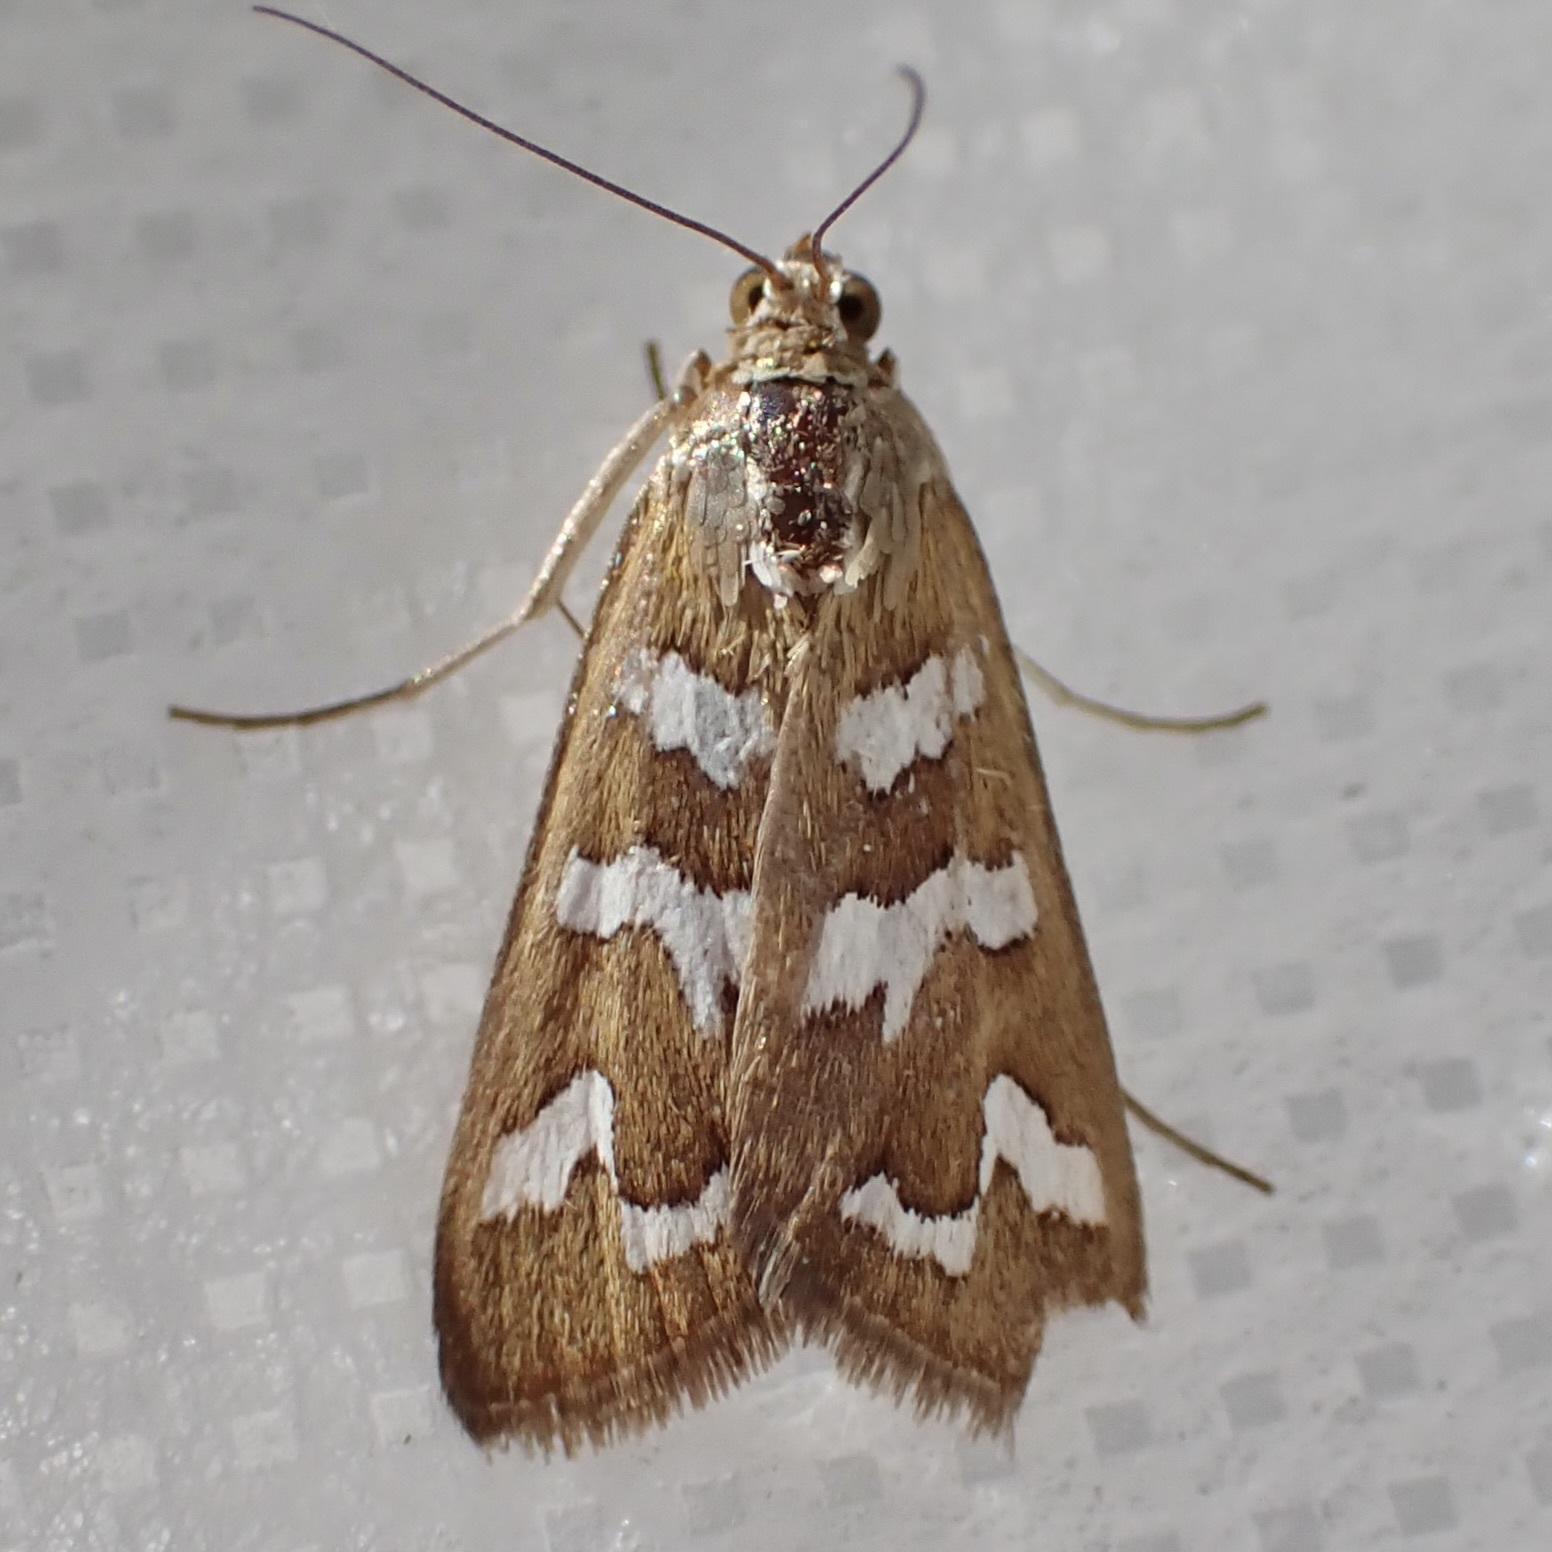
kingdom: Animalia
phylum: Arthropoda
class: Insecta
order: Lepidoptera
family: Crambidae
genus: Diastictis
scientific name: Diastictis fracturalis
